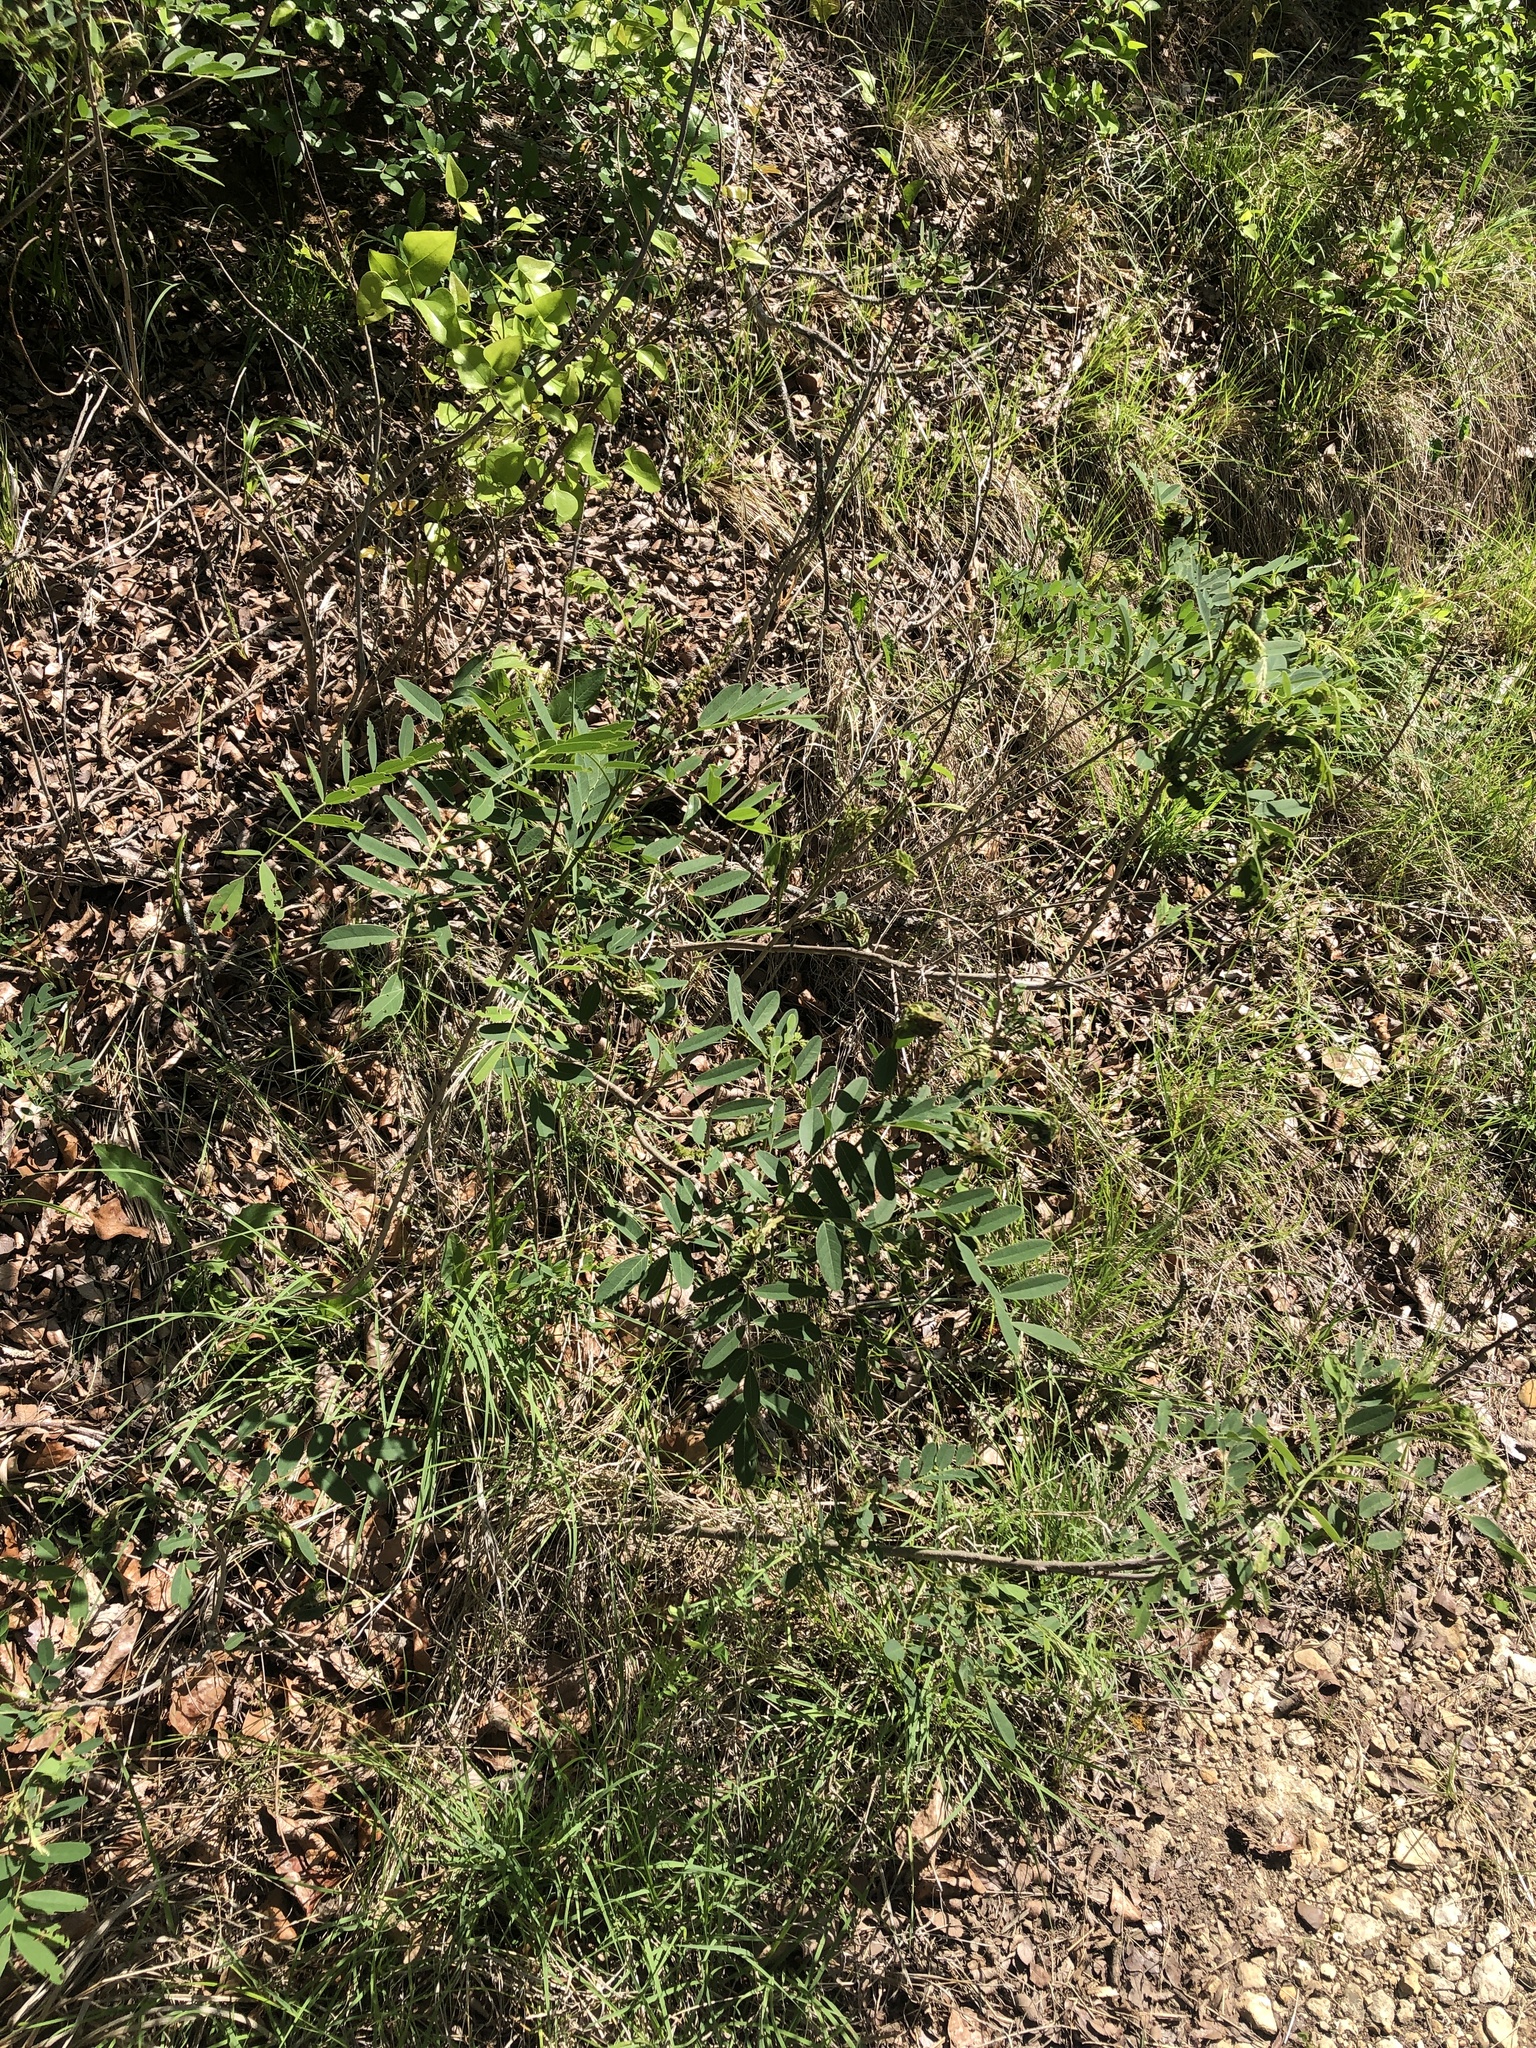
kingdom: Plantae
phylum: Tracheophyta
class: Magnoliopsida
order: Fabales
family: Fabaceae
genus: Amorpha
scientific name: Amorpha fruticosa
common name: False indigo
